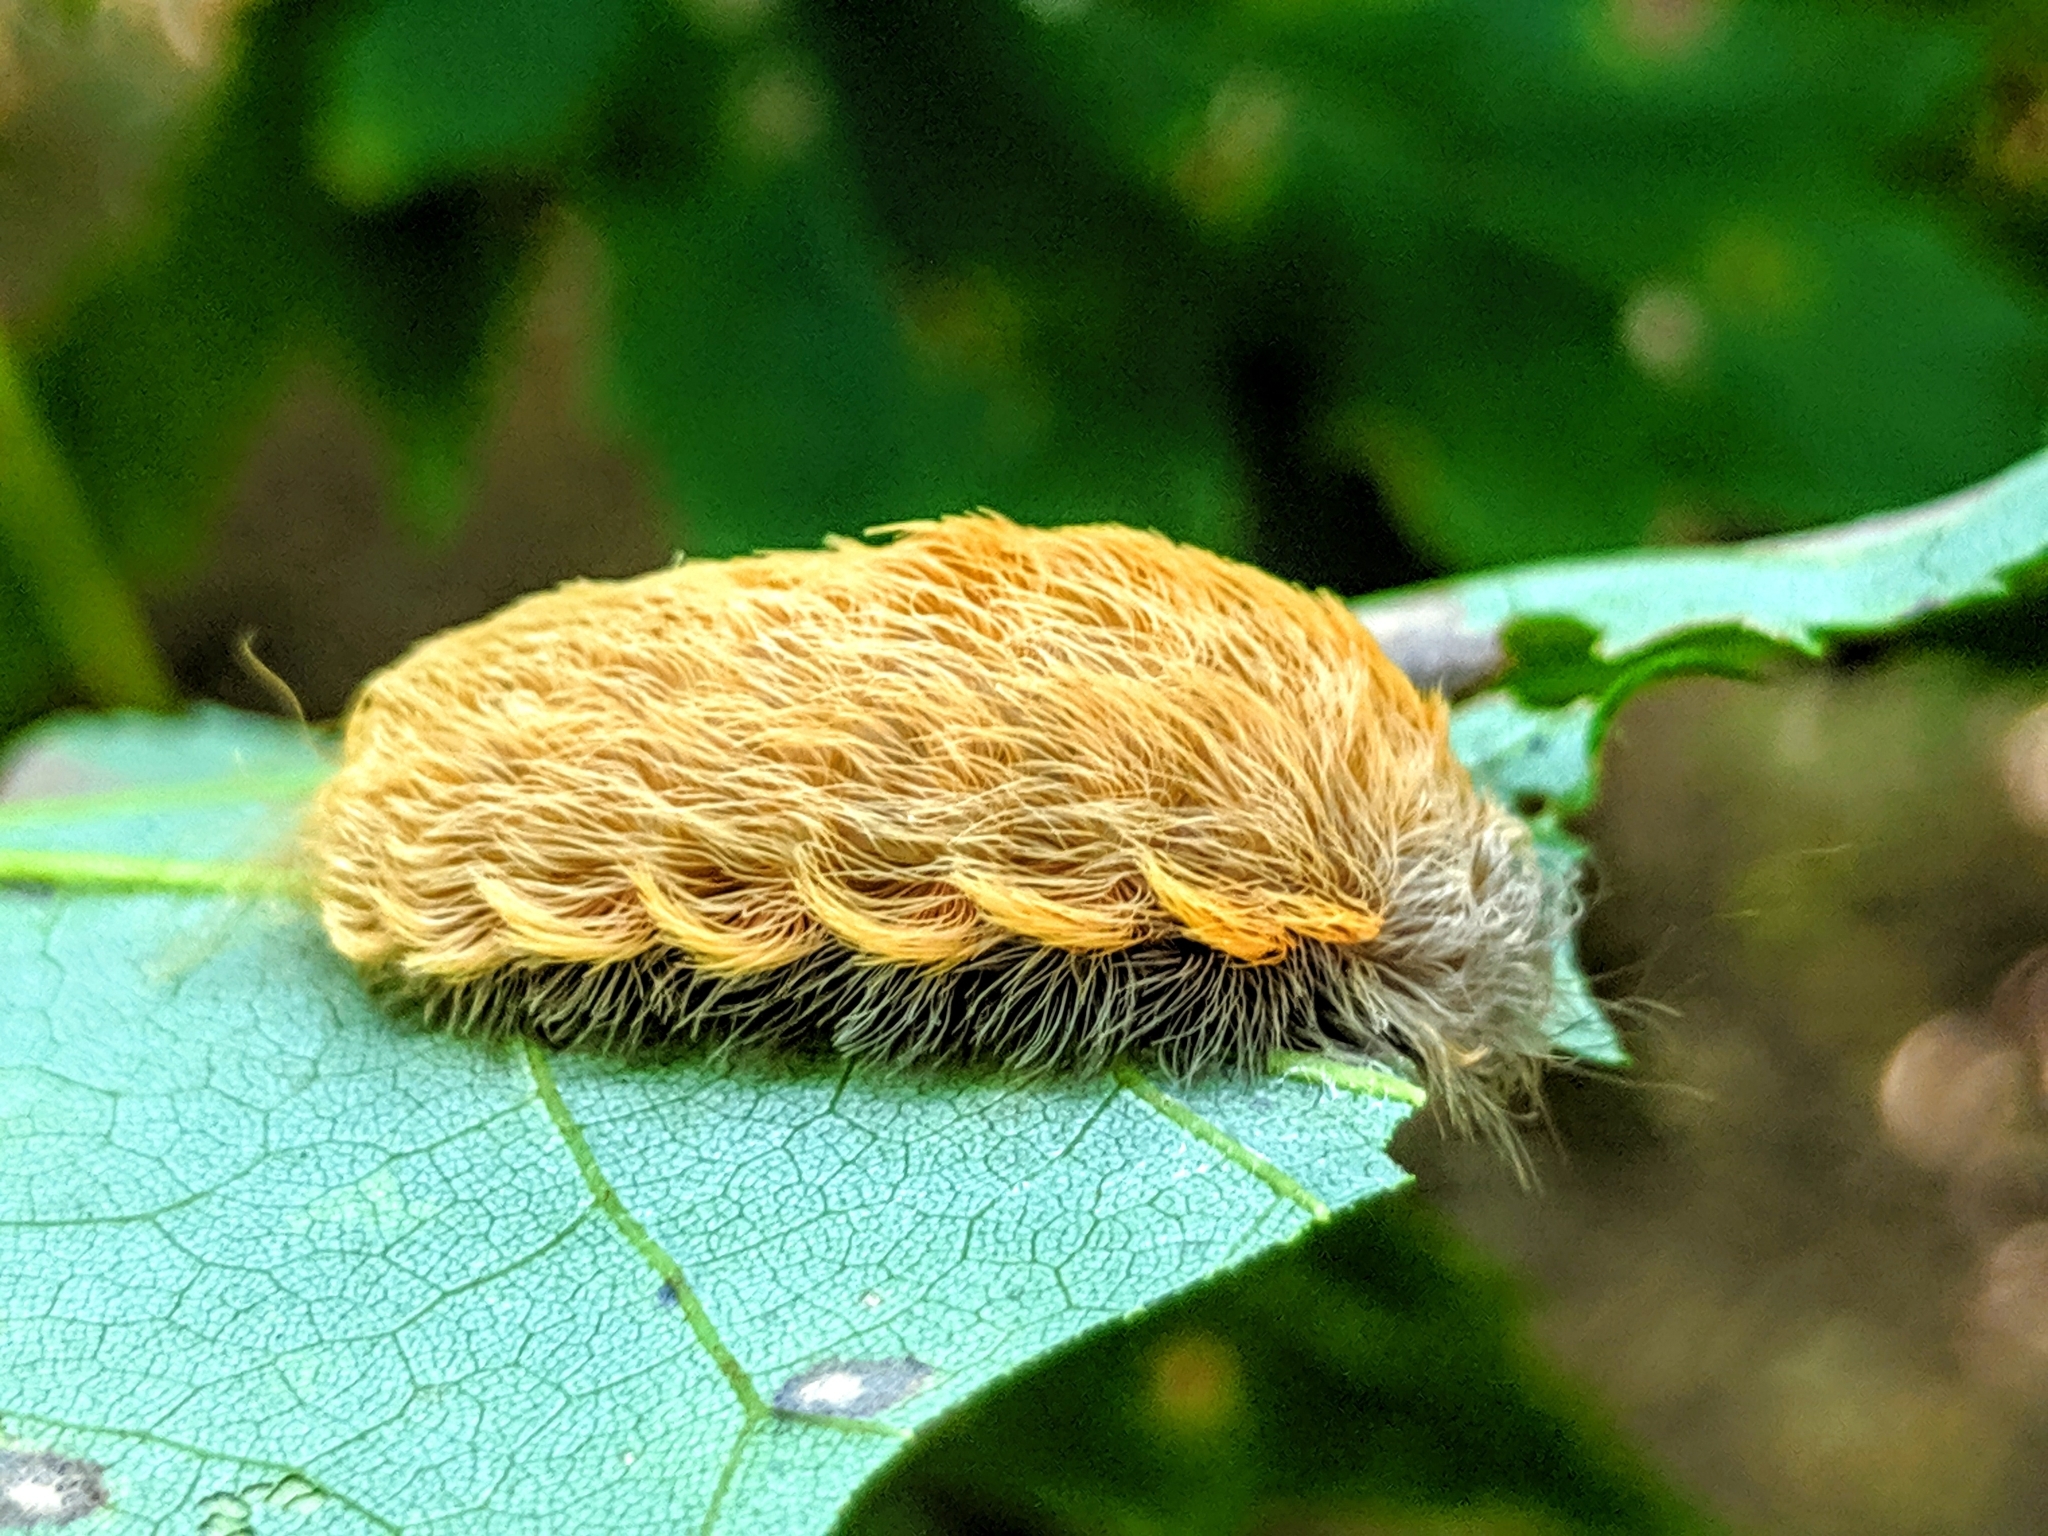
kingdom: Animalia
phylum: Arthropoda
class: Insecta
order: Lepidoptera
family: Megalopygidae
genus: Megalopyge
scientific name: Megalopyge crispata
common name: Black-waved flannel moth
